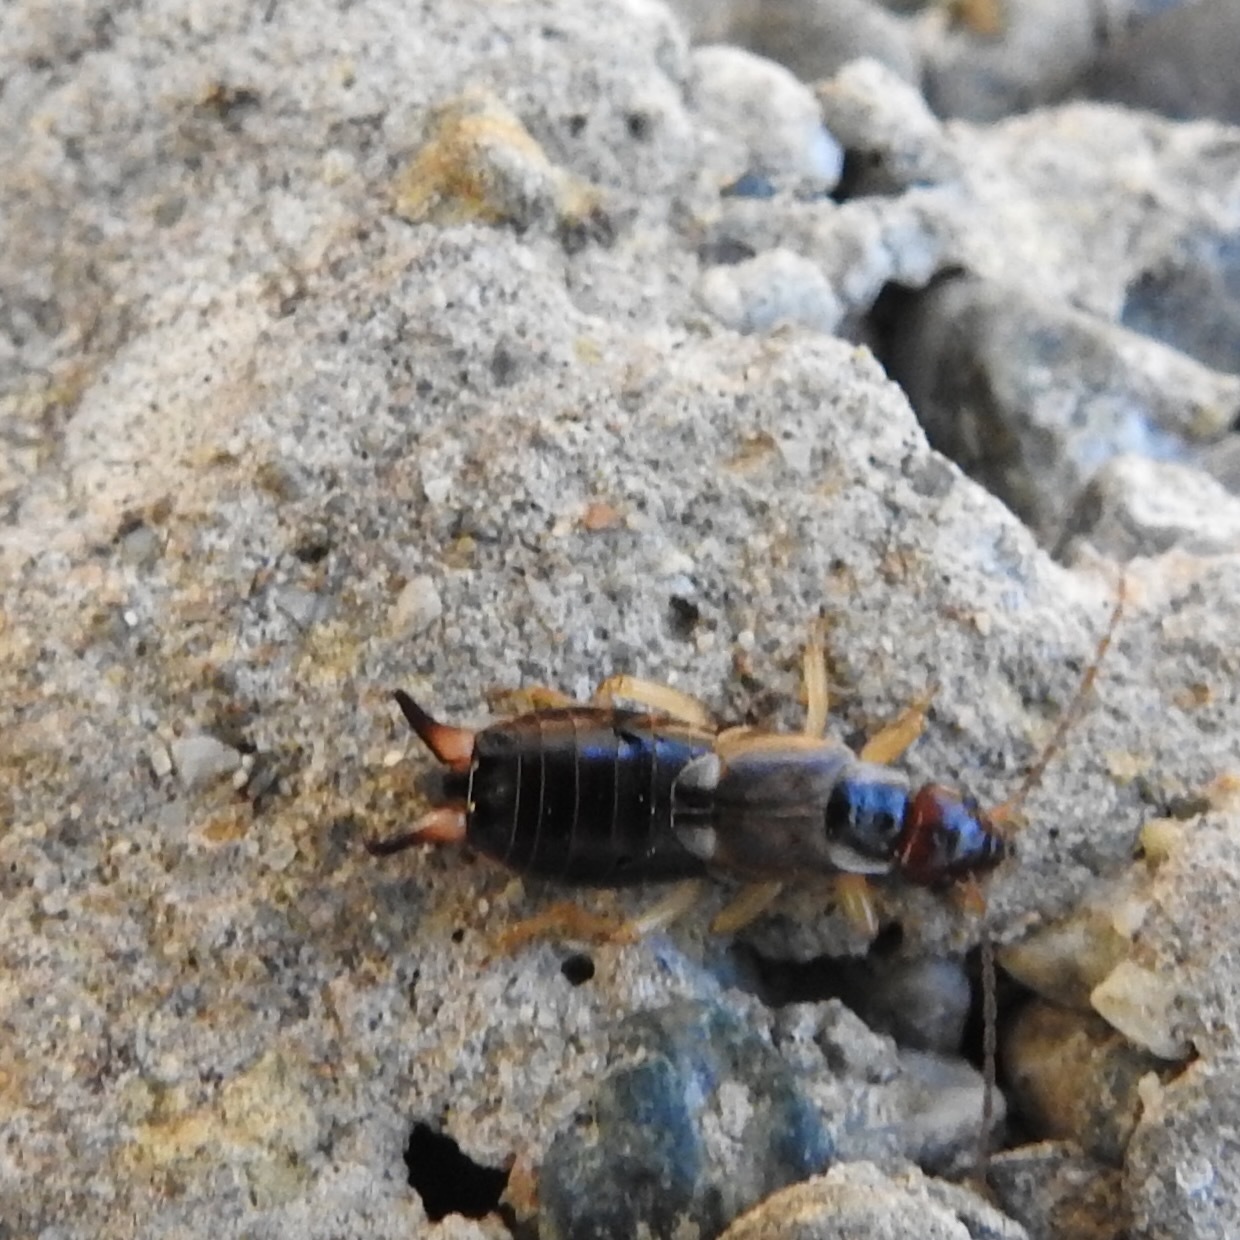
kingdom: Animalia
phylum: Arthropoda
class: Insecta
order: Dermaptera
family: Forficulidae
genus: Forficula
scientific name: Forficula dentata
